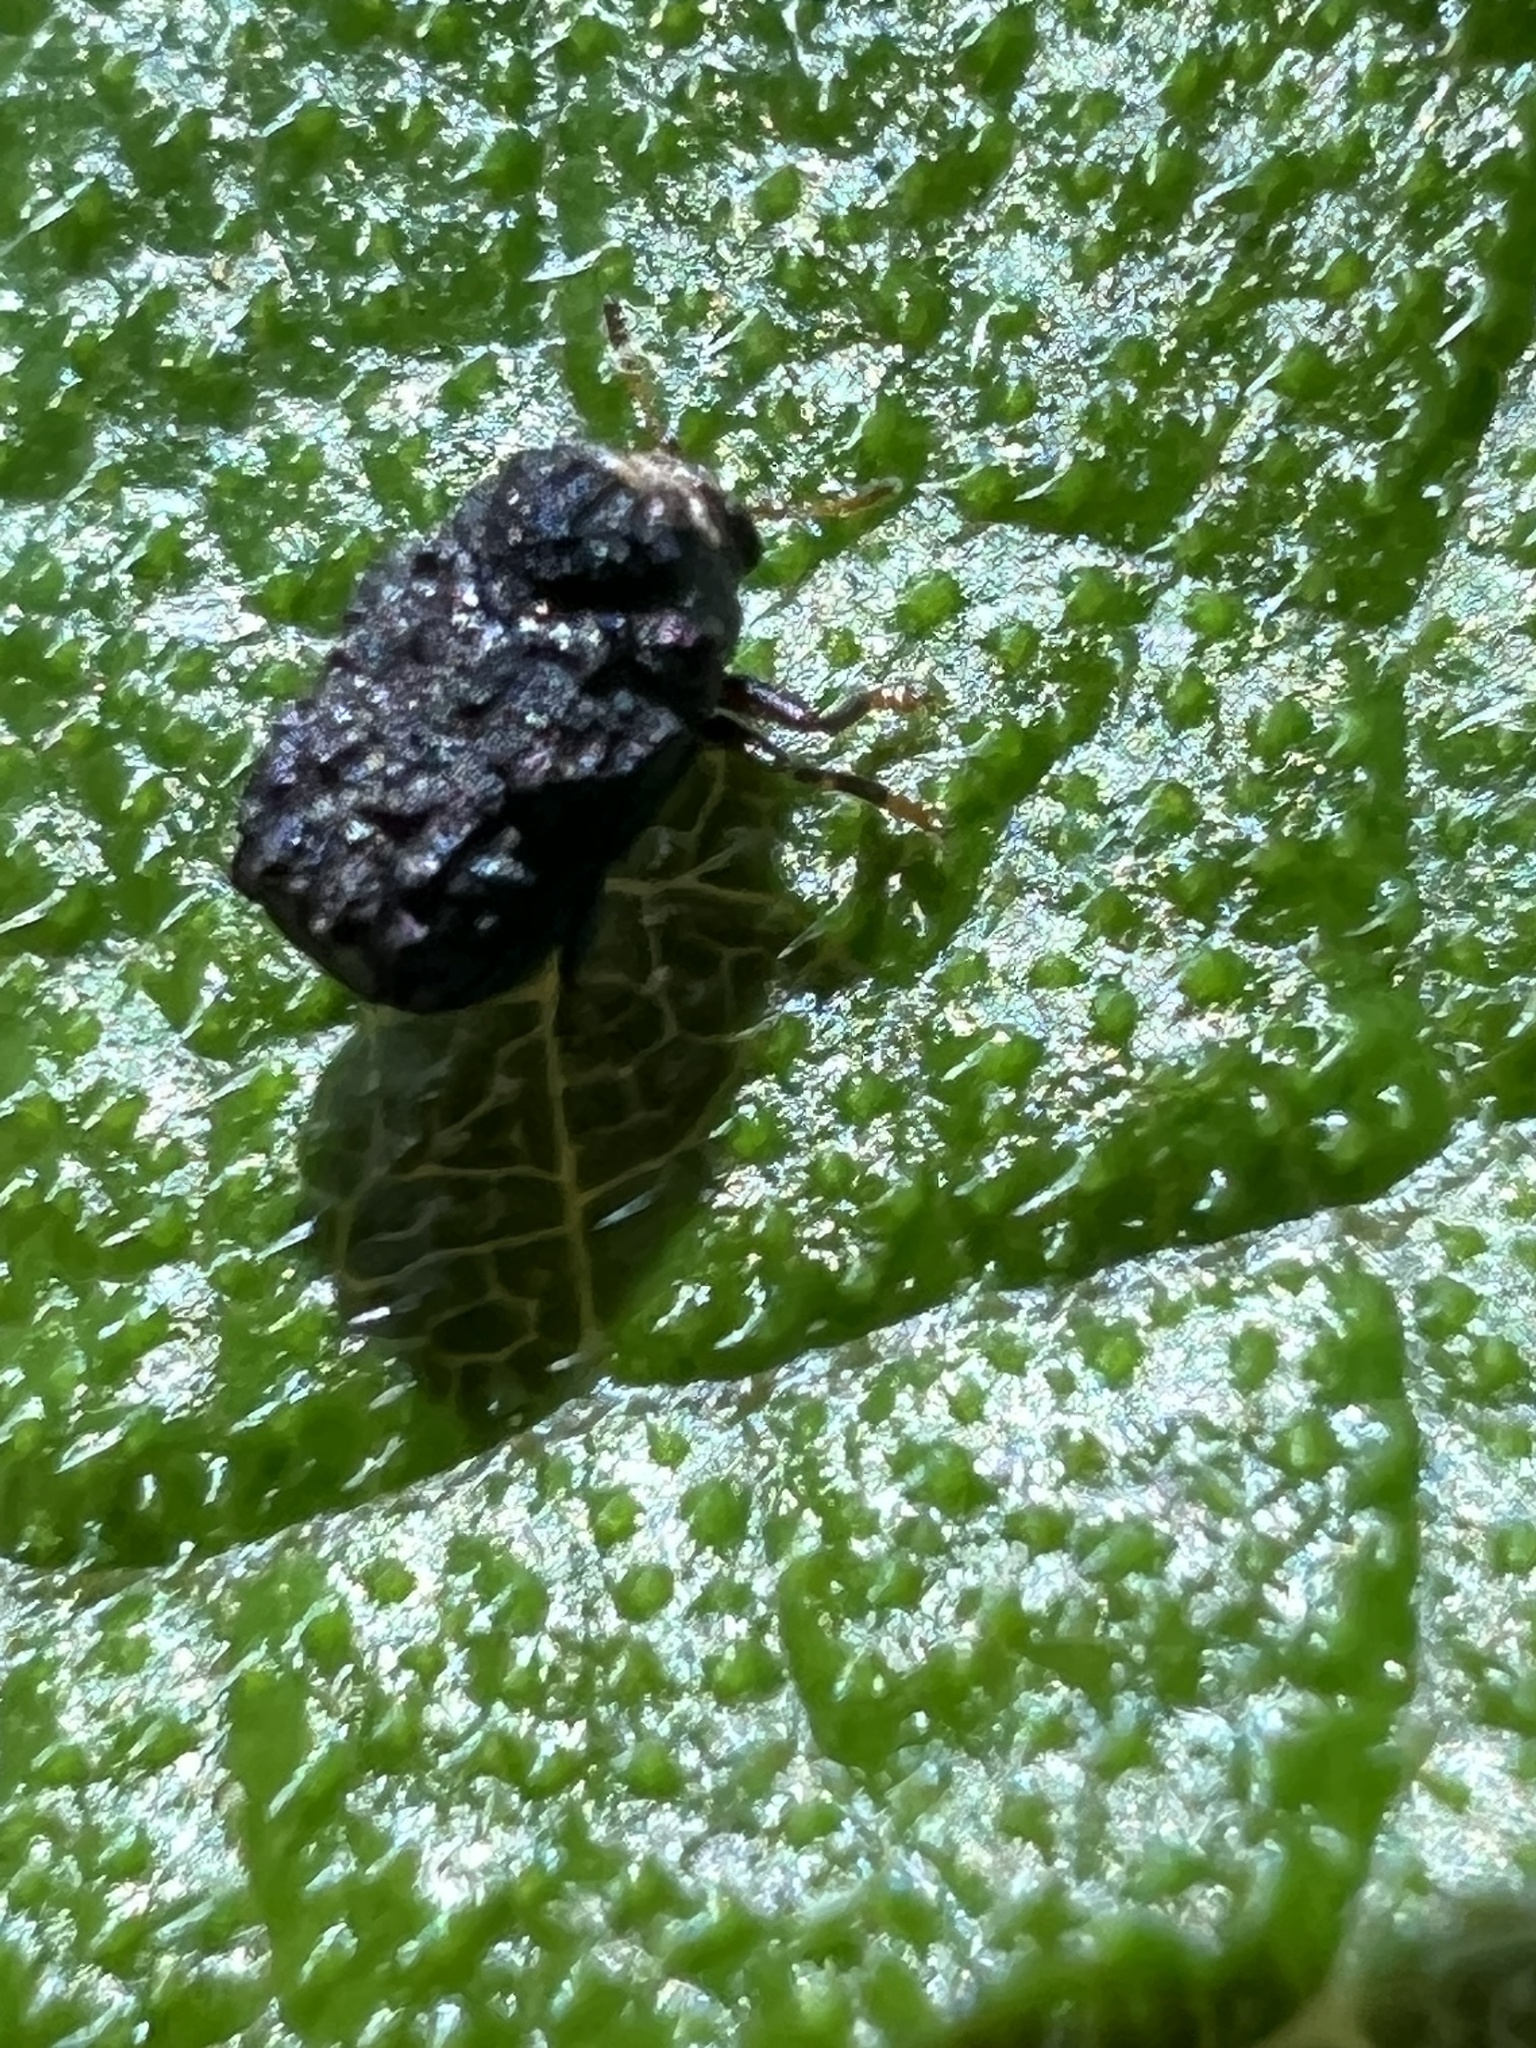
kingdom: Animalia
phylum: Arthropoda
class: Insecta
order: Coleoptera
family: Chrysomelidae
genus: Exema
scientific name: Exema dispar
